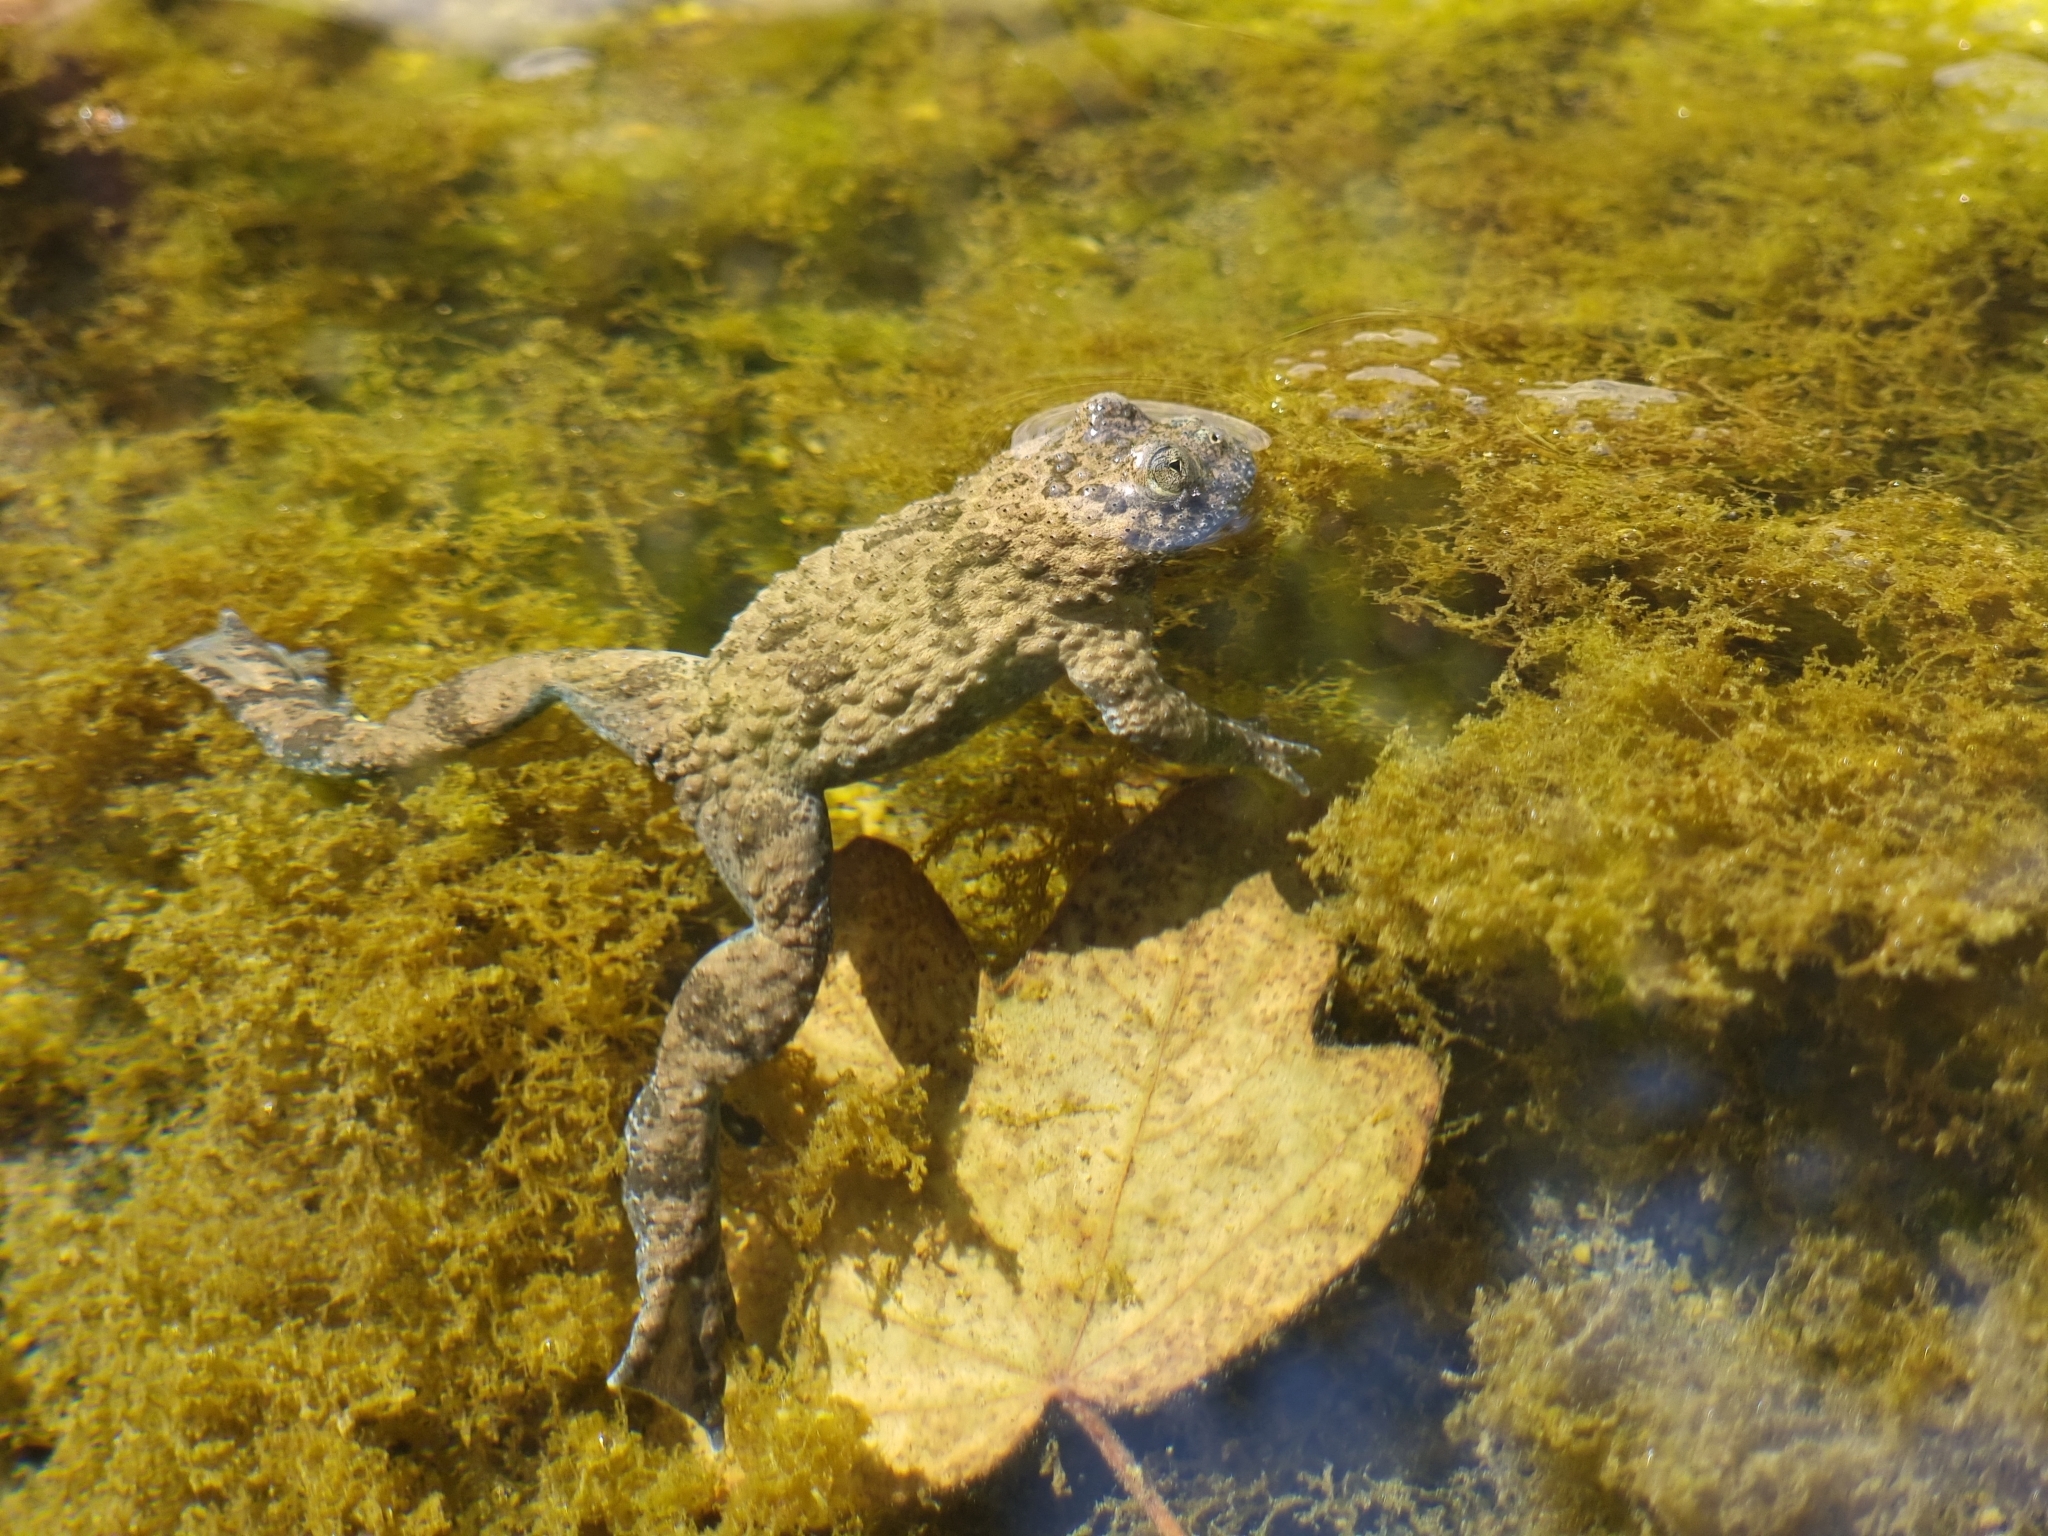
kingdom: Animalia
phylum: Chordata
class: Amphibia
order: Anura
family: Bombinatoridae
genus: Bombina
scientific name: Bombina variegata
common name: Yellow-bellied toad
